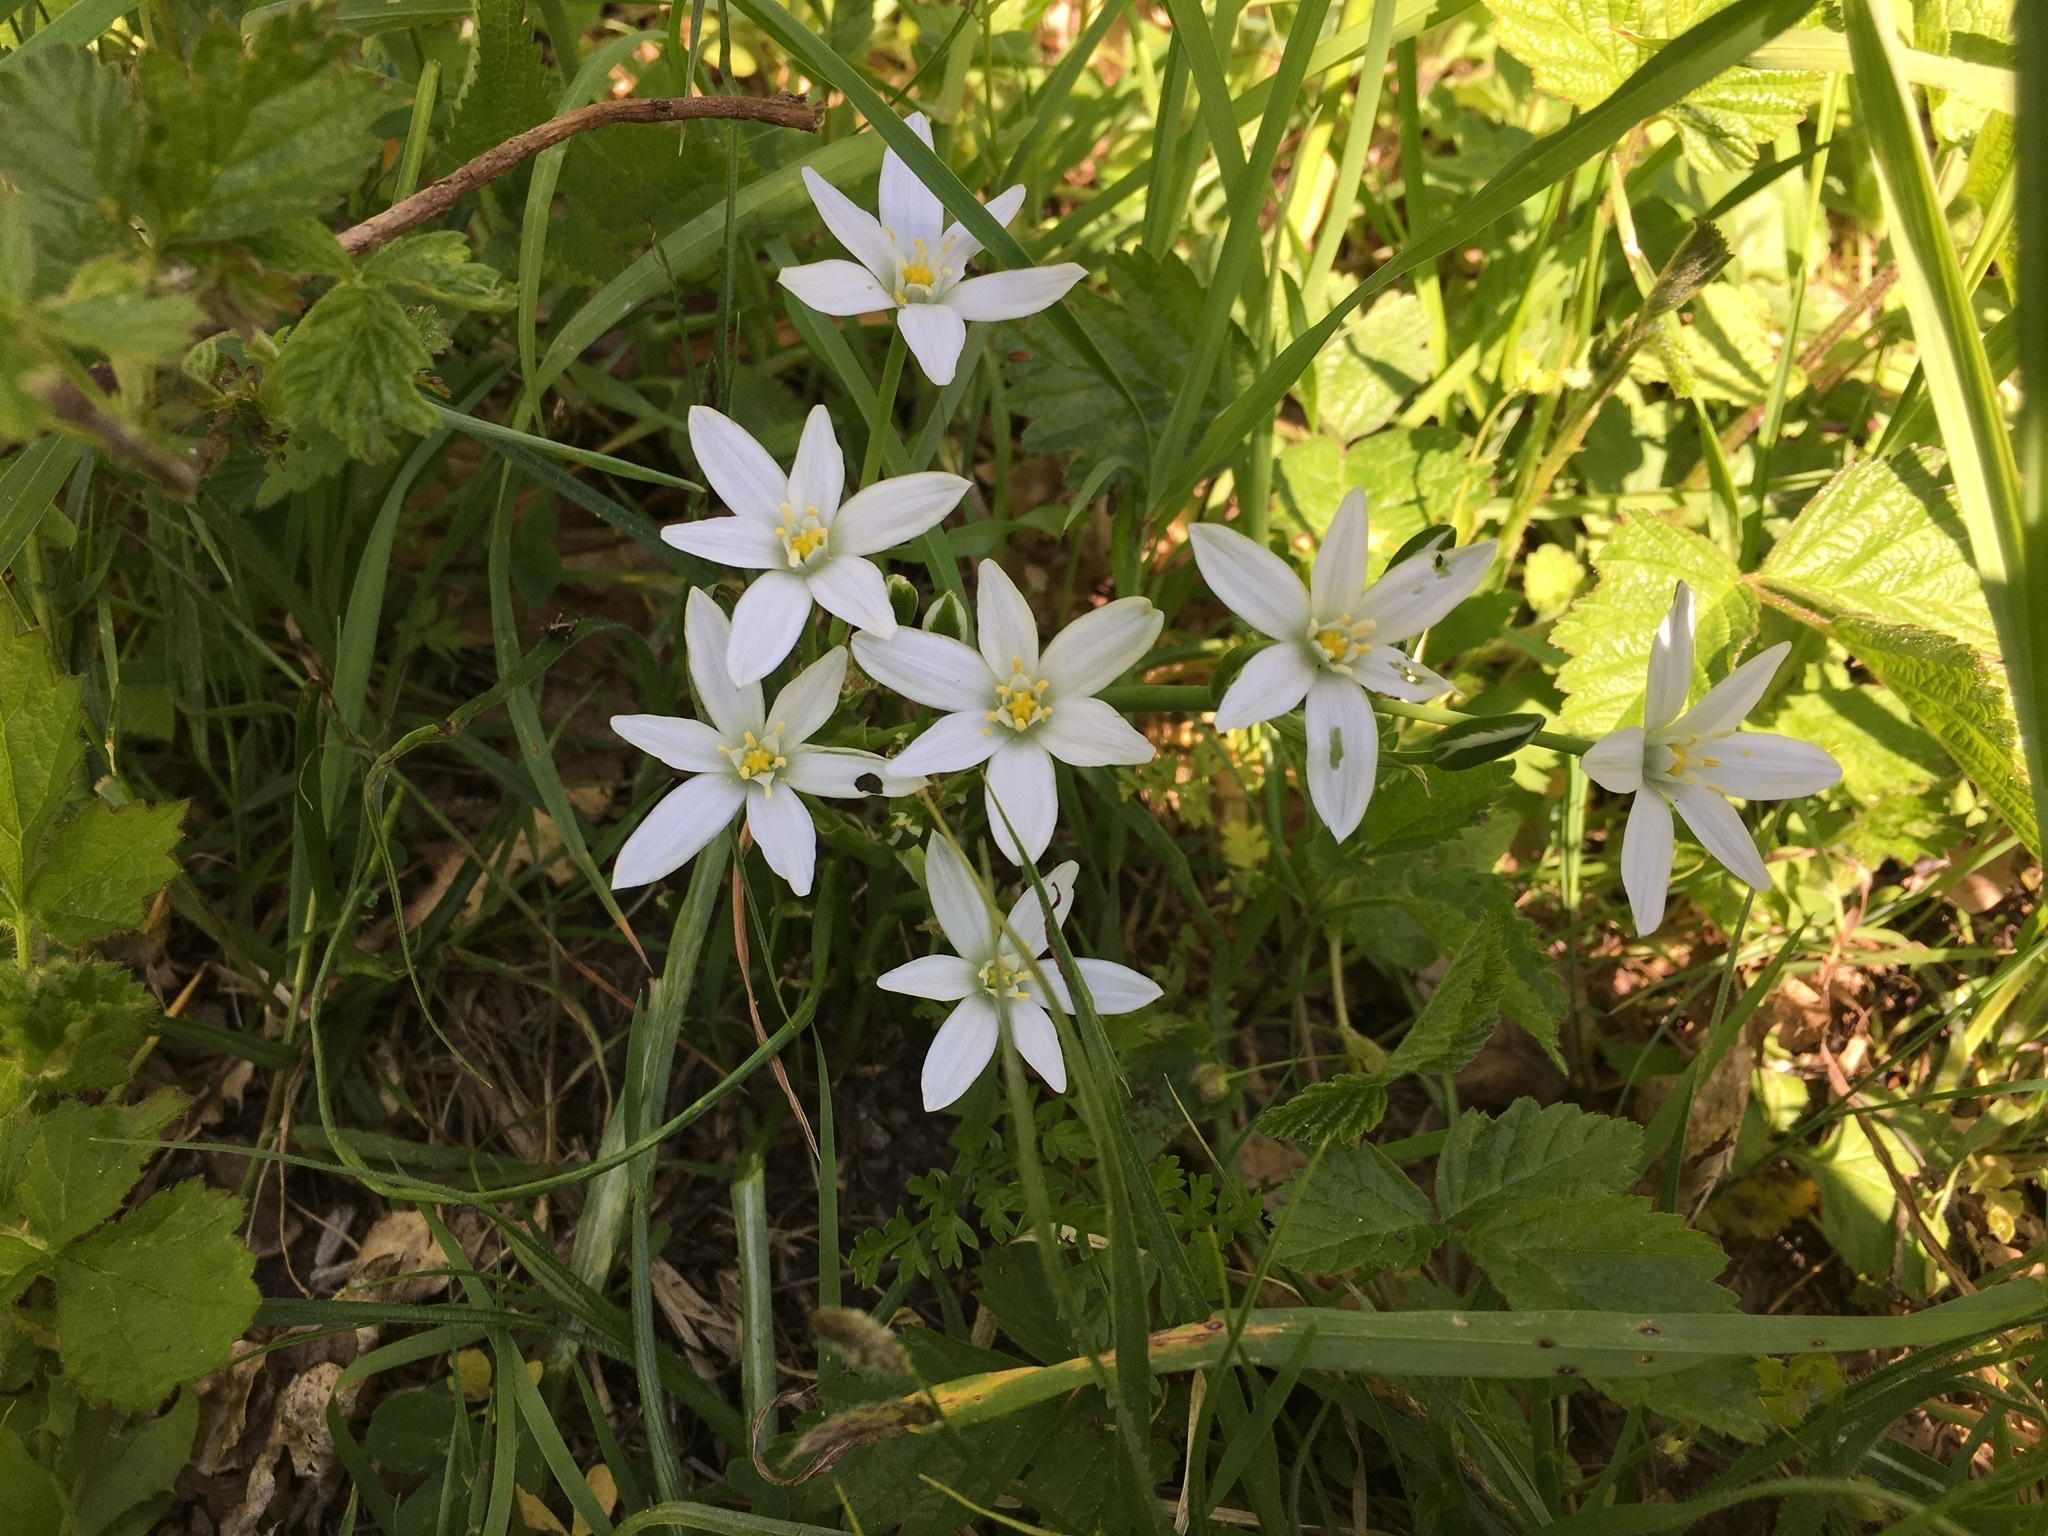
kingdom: Plantae
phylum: Tracheophyta
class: Liliopsida
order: Asparagales
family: Asparagaceae
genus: Ornithogalum
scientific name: Ornithogalum umbellatum
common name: Garden star-of-bethlehem
